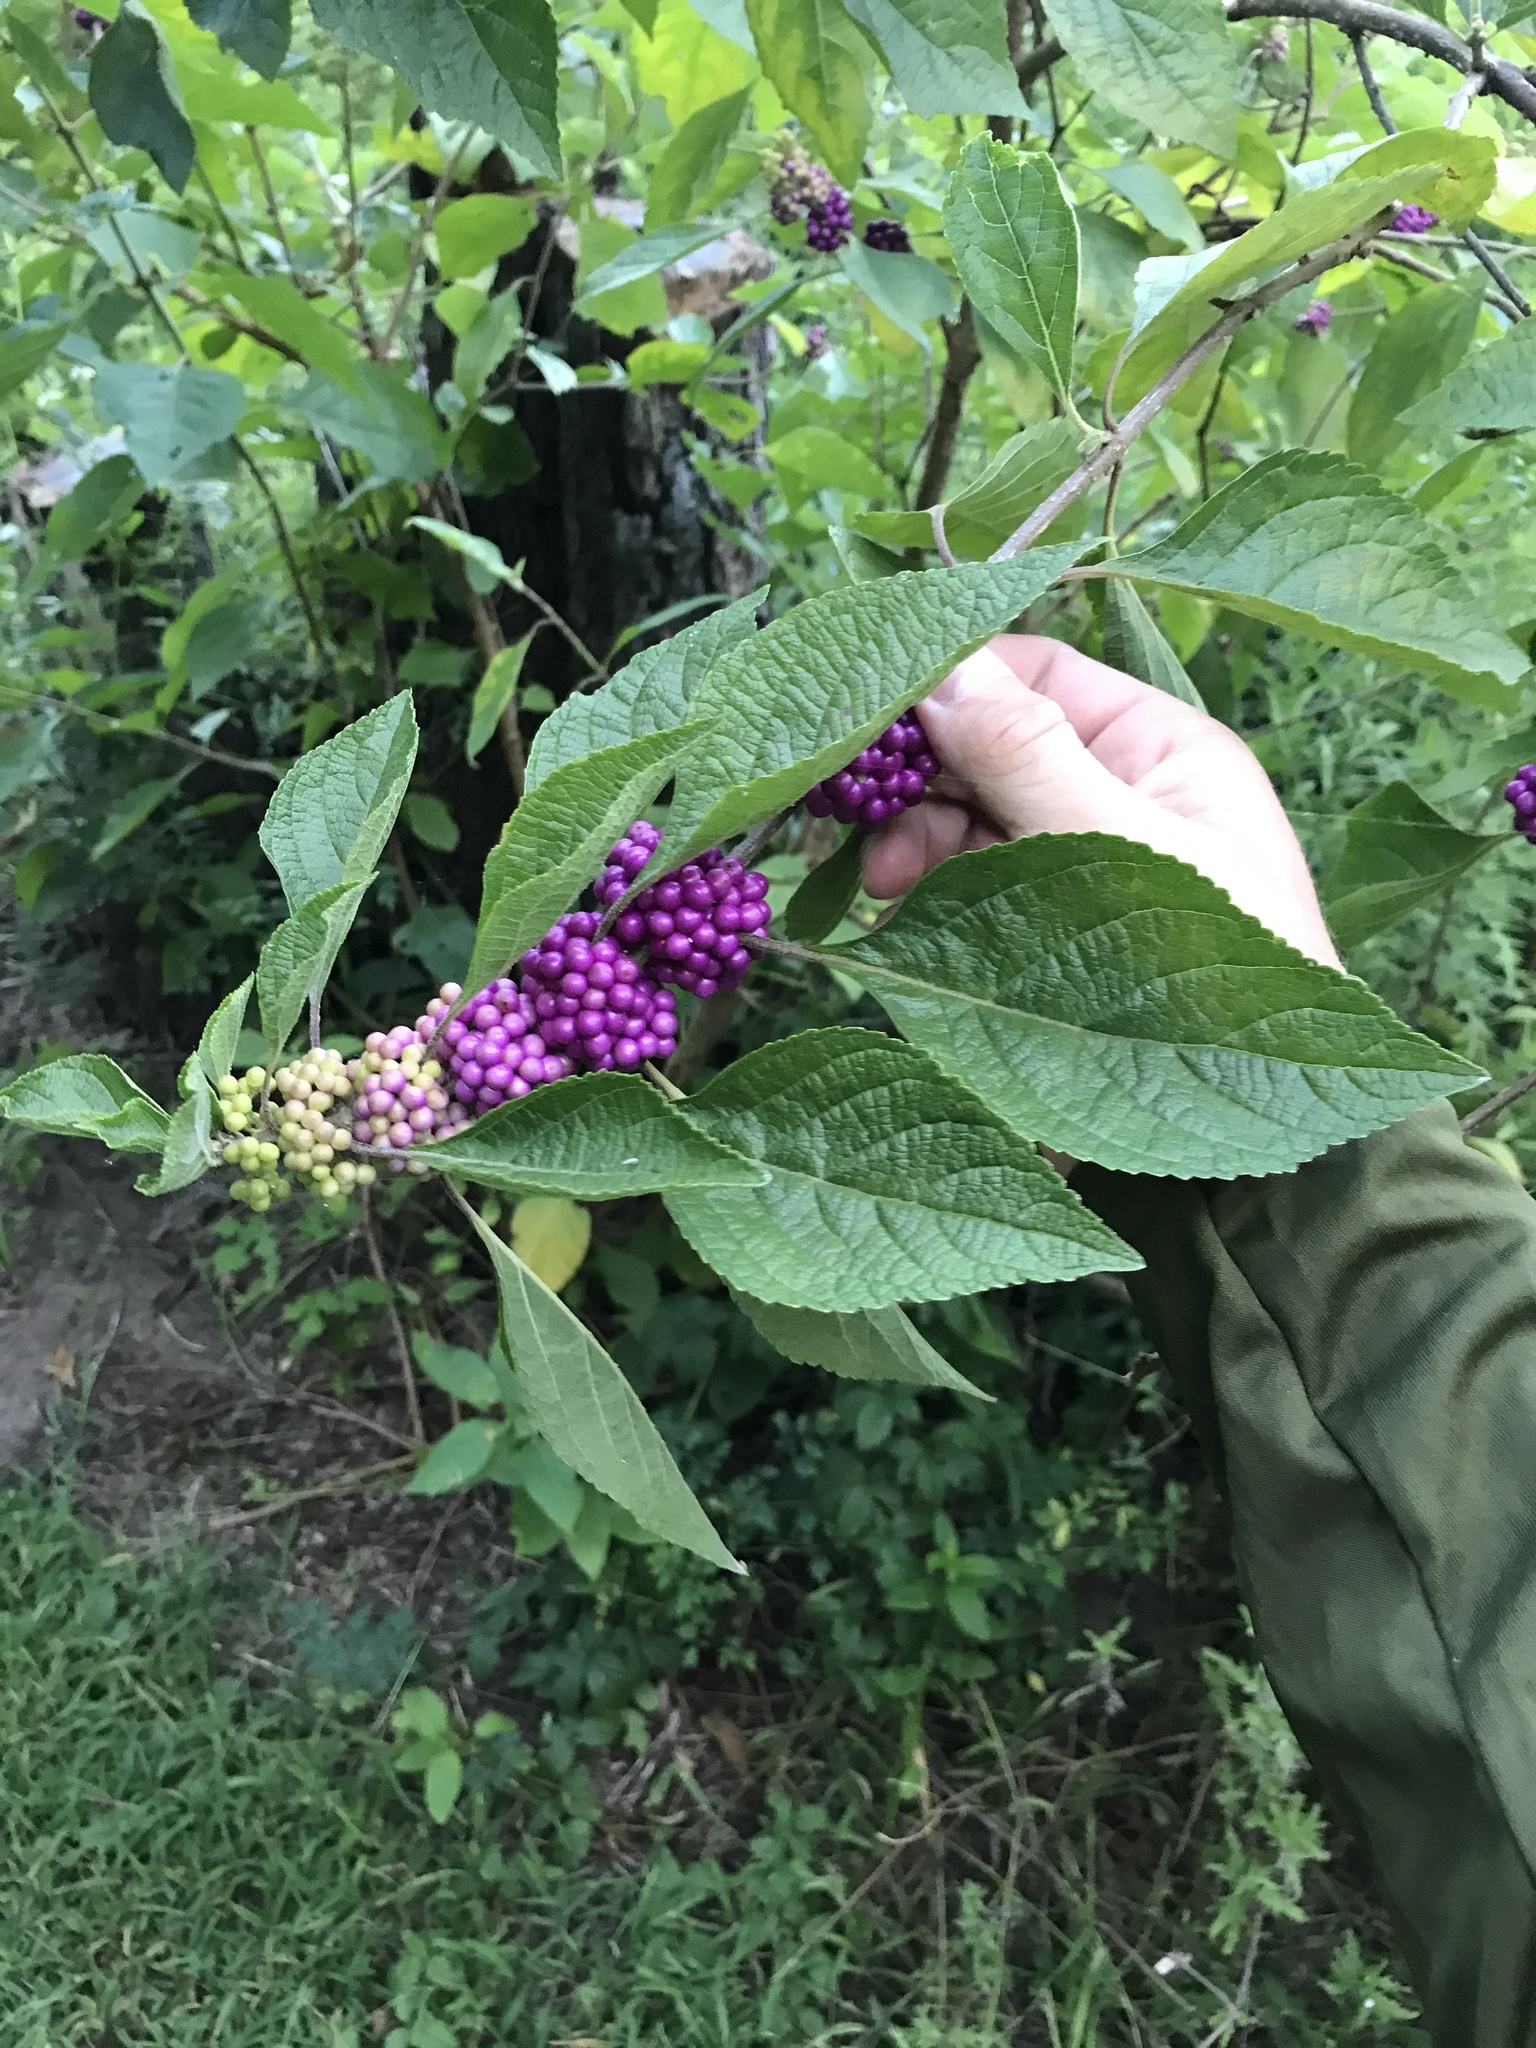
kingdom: Plantae
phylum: Tracheophyta
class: Magnoliopsida
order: Lamiales
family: Lamiaceae
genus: Callicarpa
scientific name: Callicarpa americana
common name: American beautyberry
